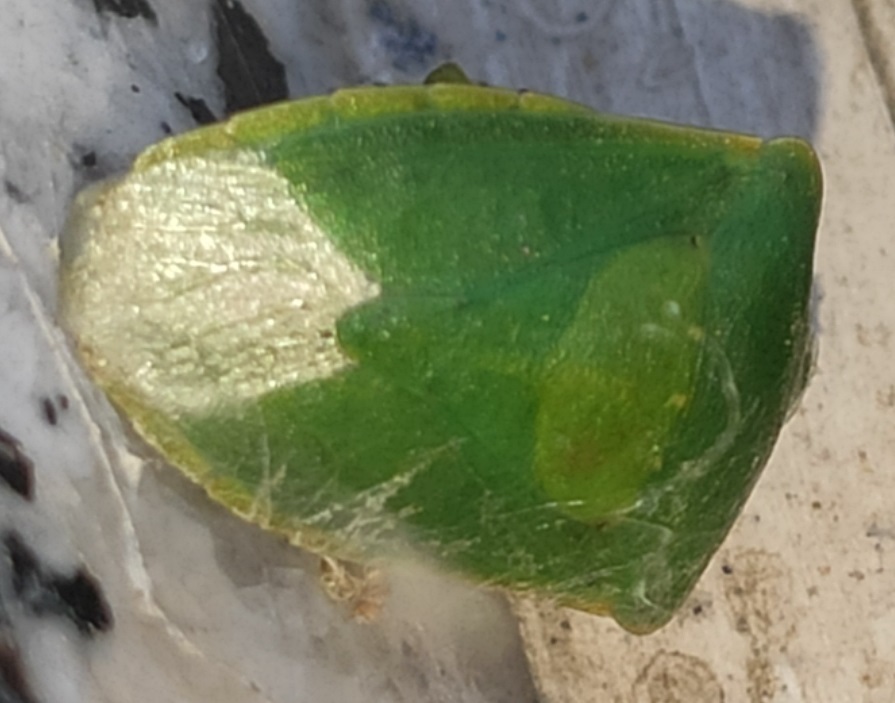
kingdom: Animalia
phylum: Arthropoda
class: Insecta
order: Hemiptera
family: Pentatomidae
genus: Nezara
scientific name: Nezara viridula
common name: Southern green stink bug
